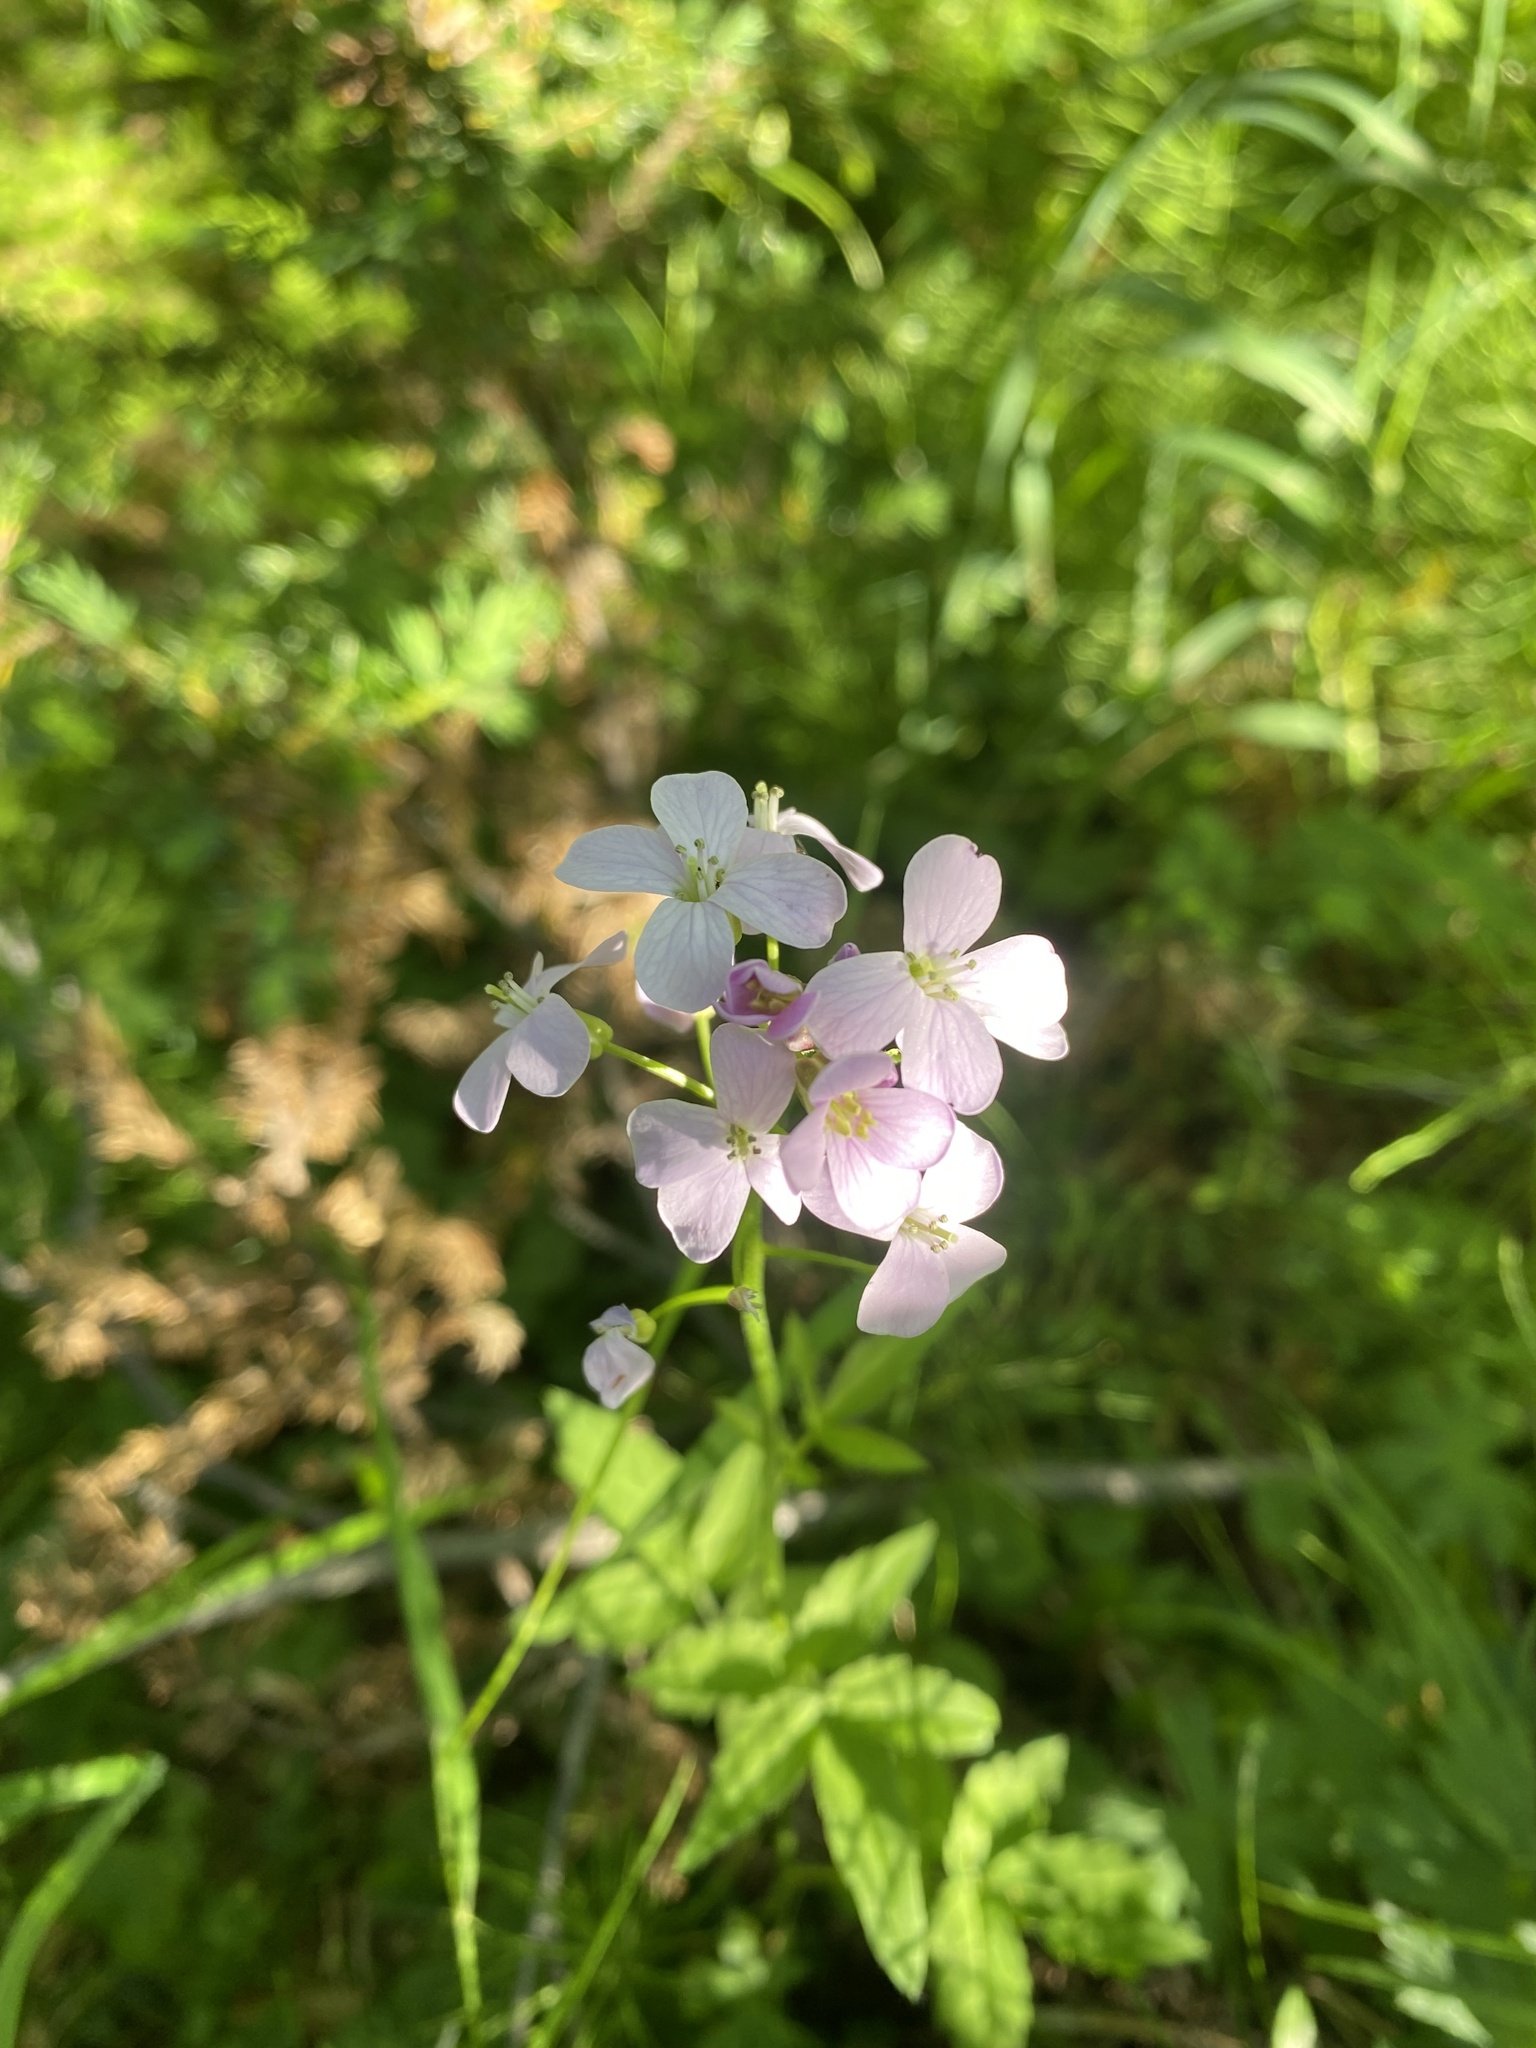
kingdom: Plantae
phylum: Tracheophyta
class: Magnoliopsida
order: Brassicales
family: Brassicaceae
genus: Cardamine
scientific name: Cardamine macrophylla
